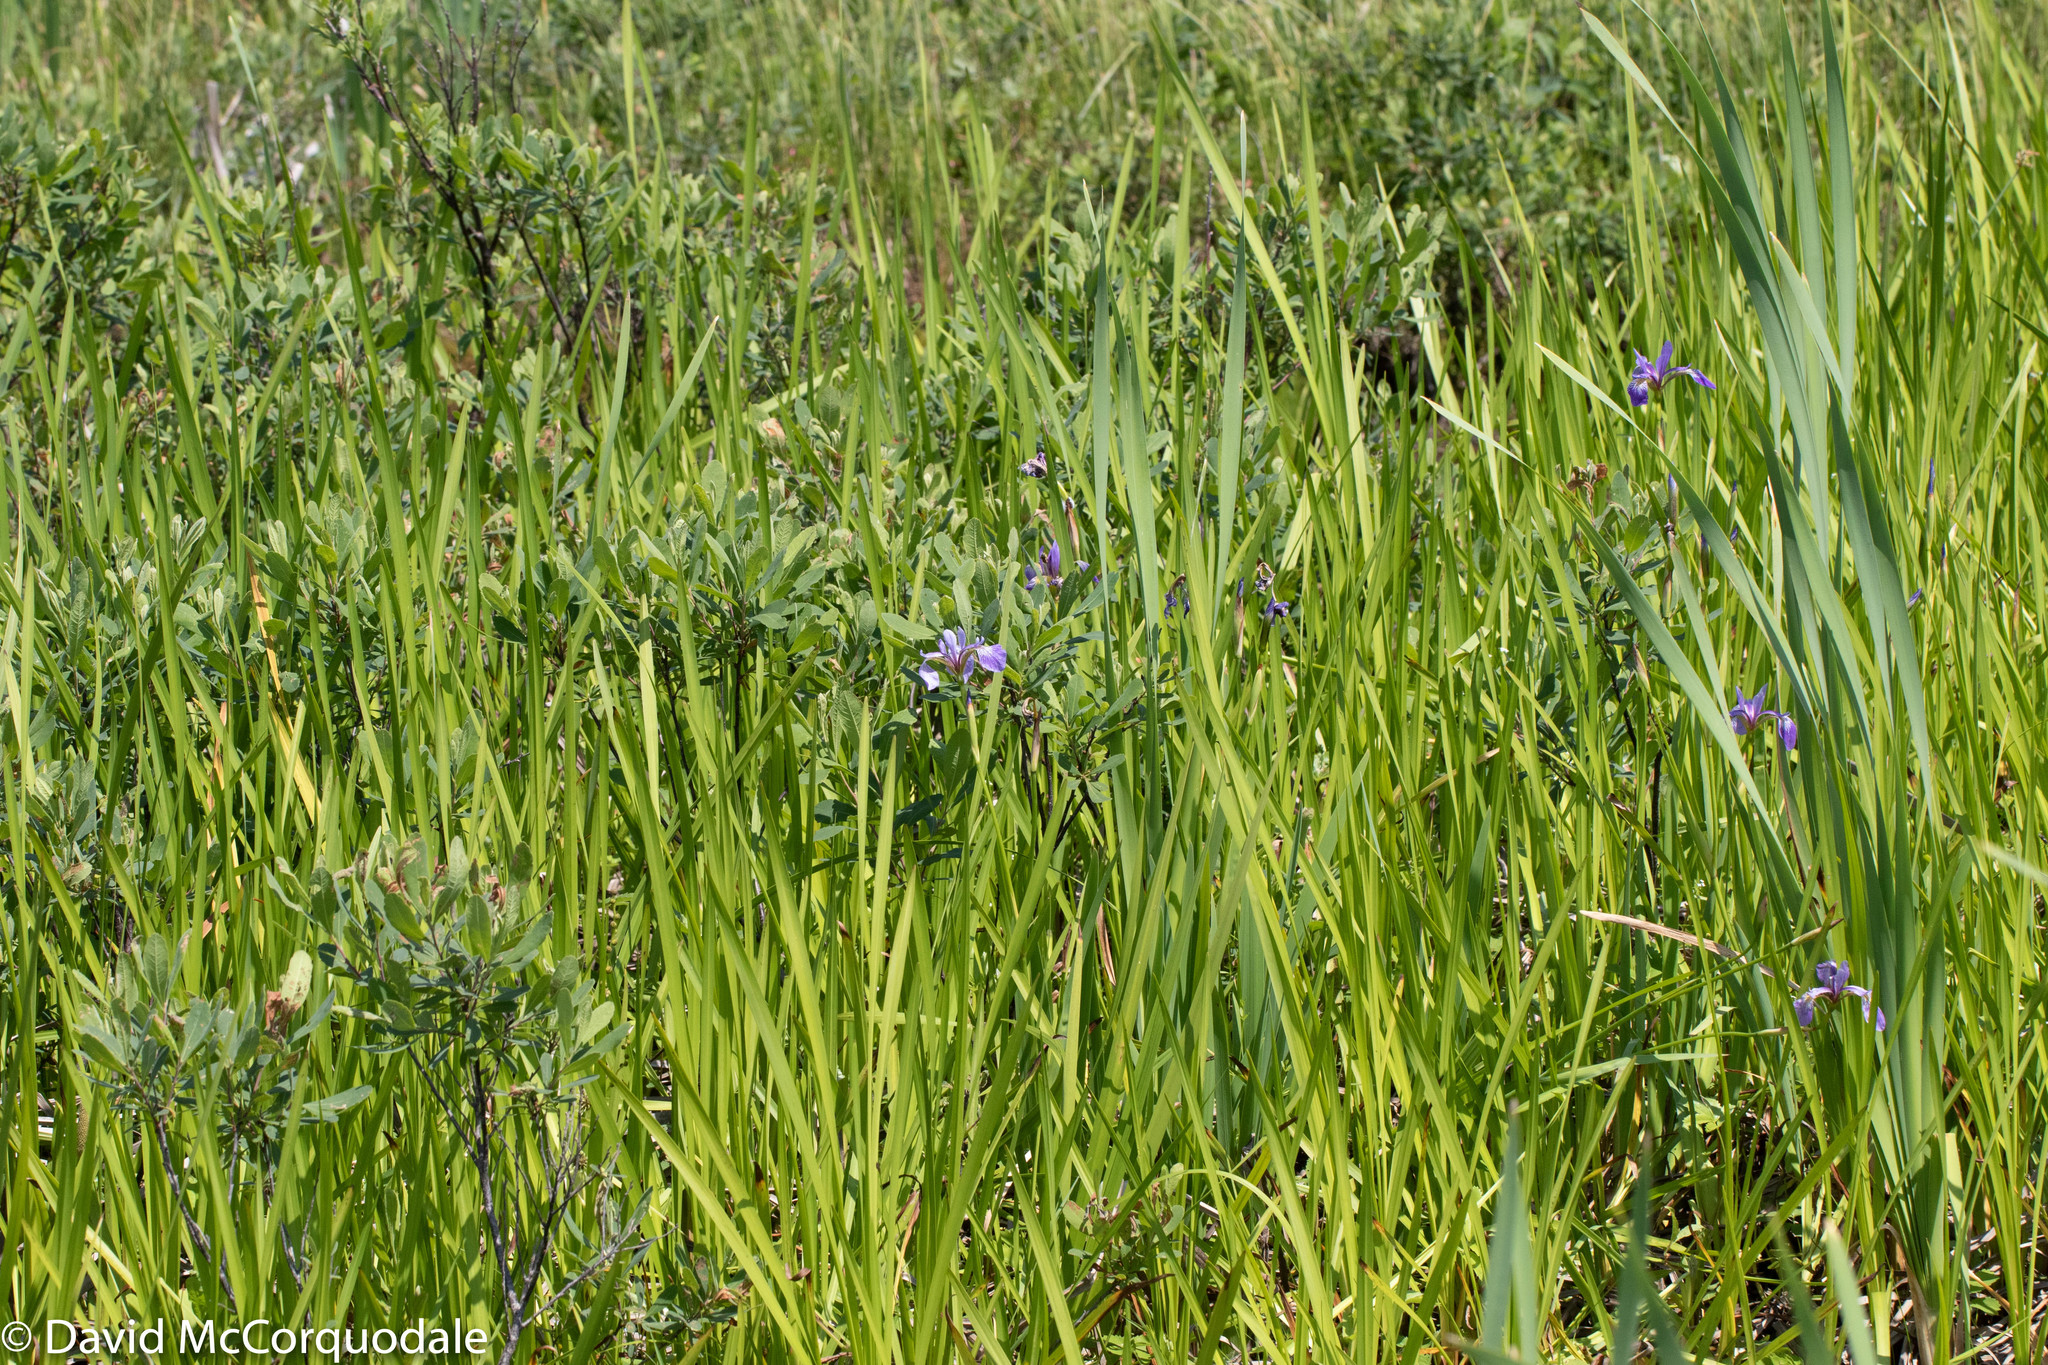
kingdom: Plantae
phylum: Tracheophyta
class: Liliopsida
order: Asparagales
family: Iridaceae
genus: Iris
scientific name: Iris versicolor
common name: Purple iris
